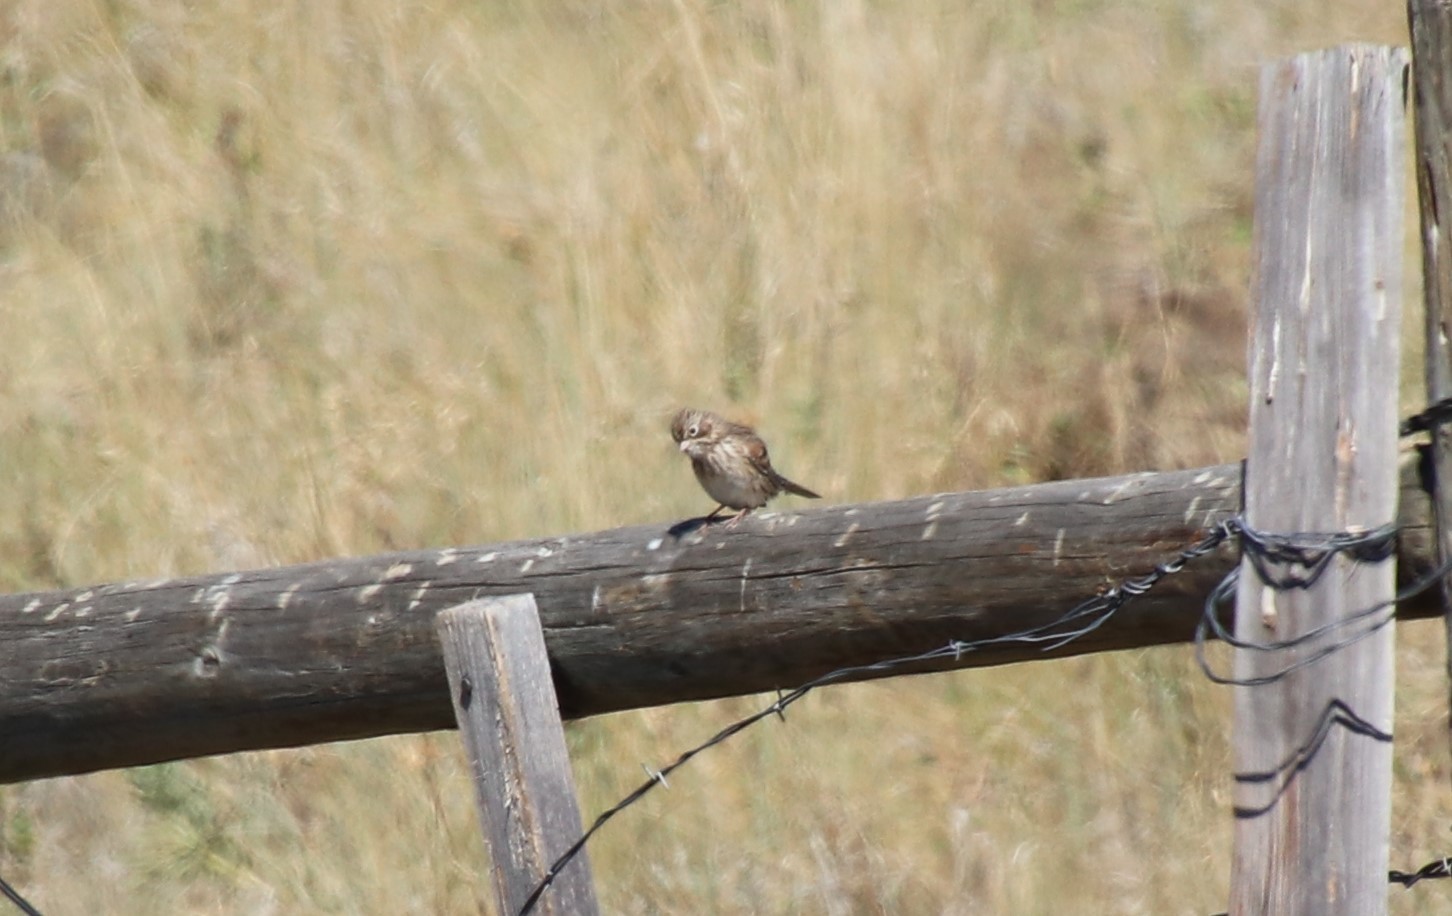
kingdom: Animalia
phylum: Chordata
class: Aves
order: Passeriformes
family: Passerellidae
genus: Pooecetes
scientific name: Pooecetes gramineus
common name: Vesper sparrow
